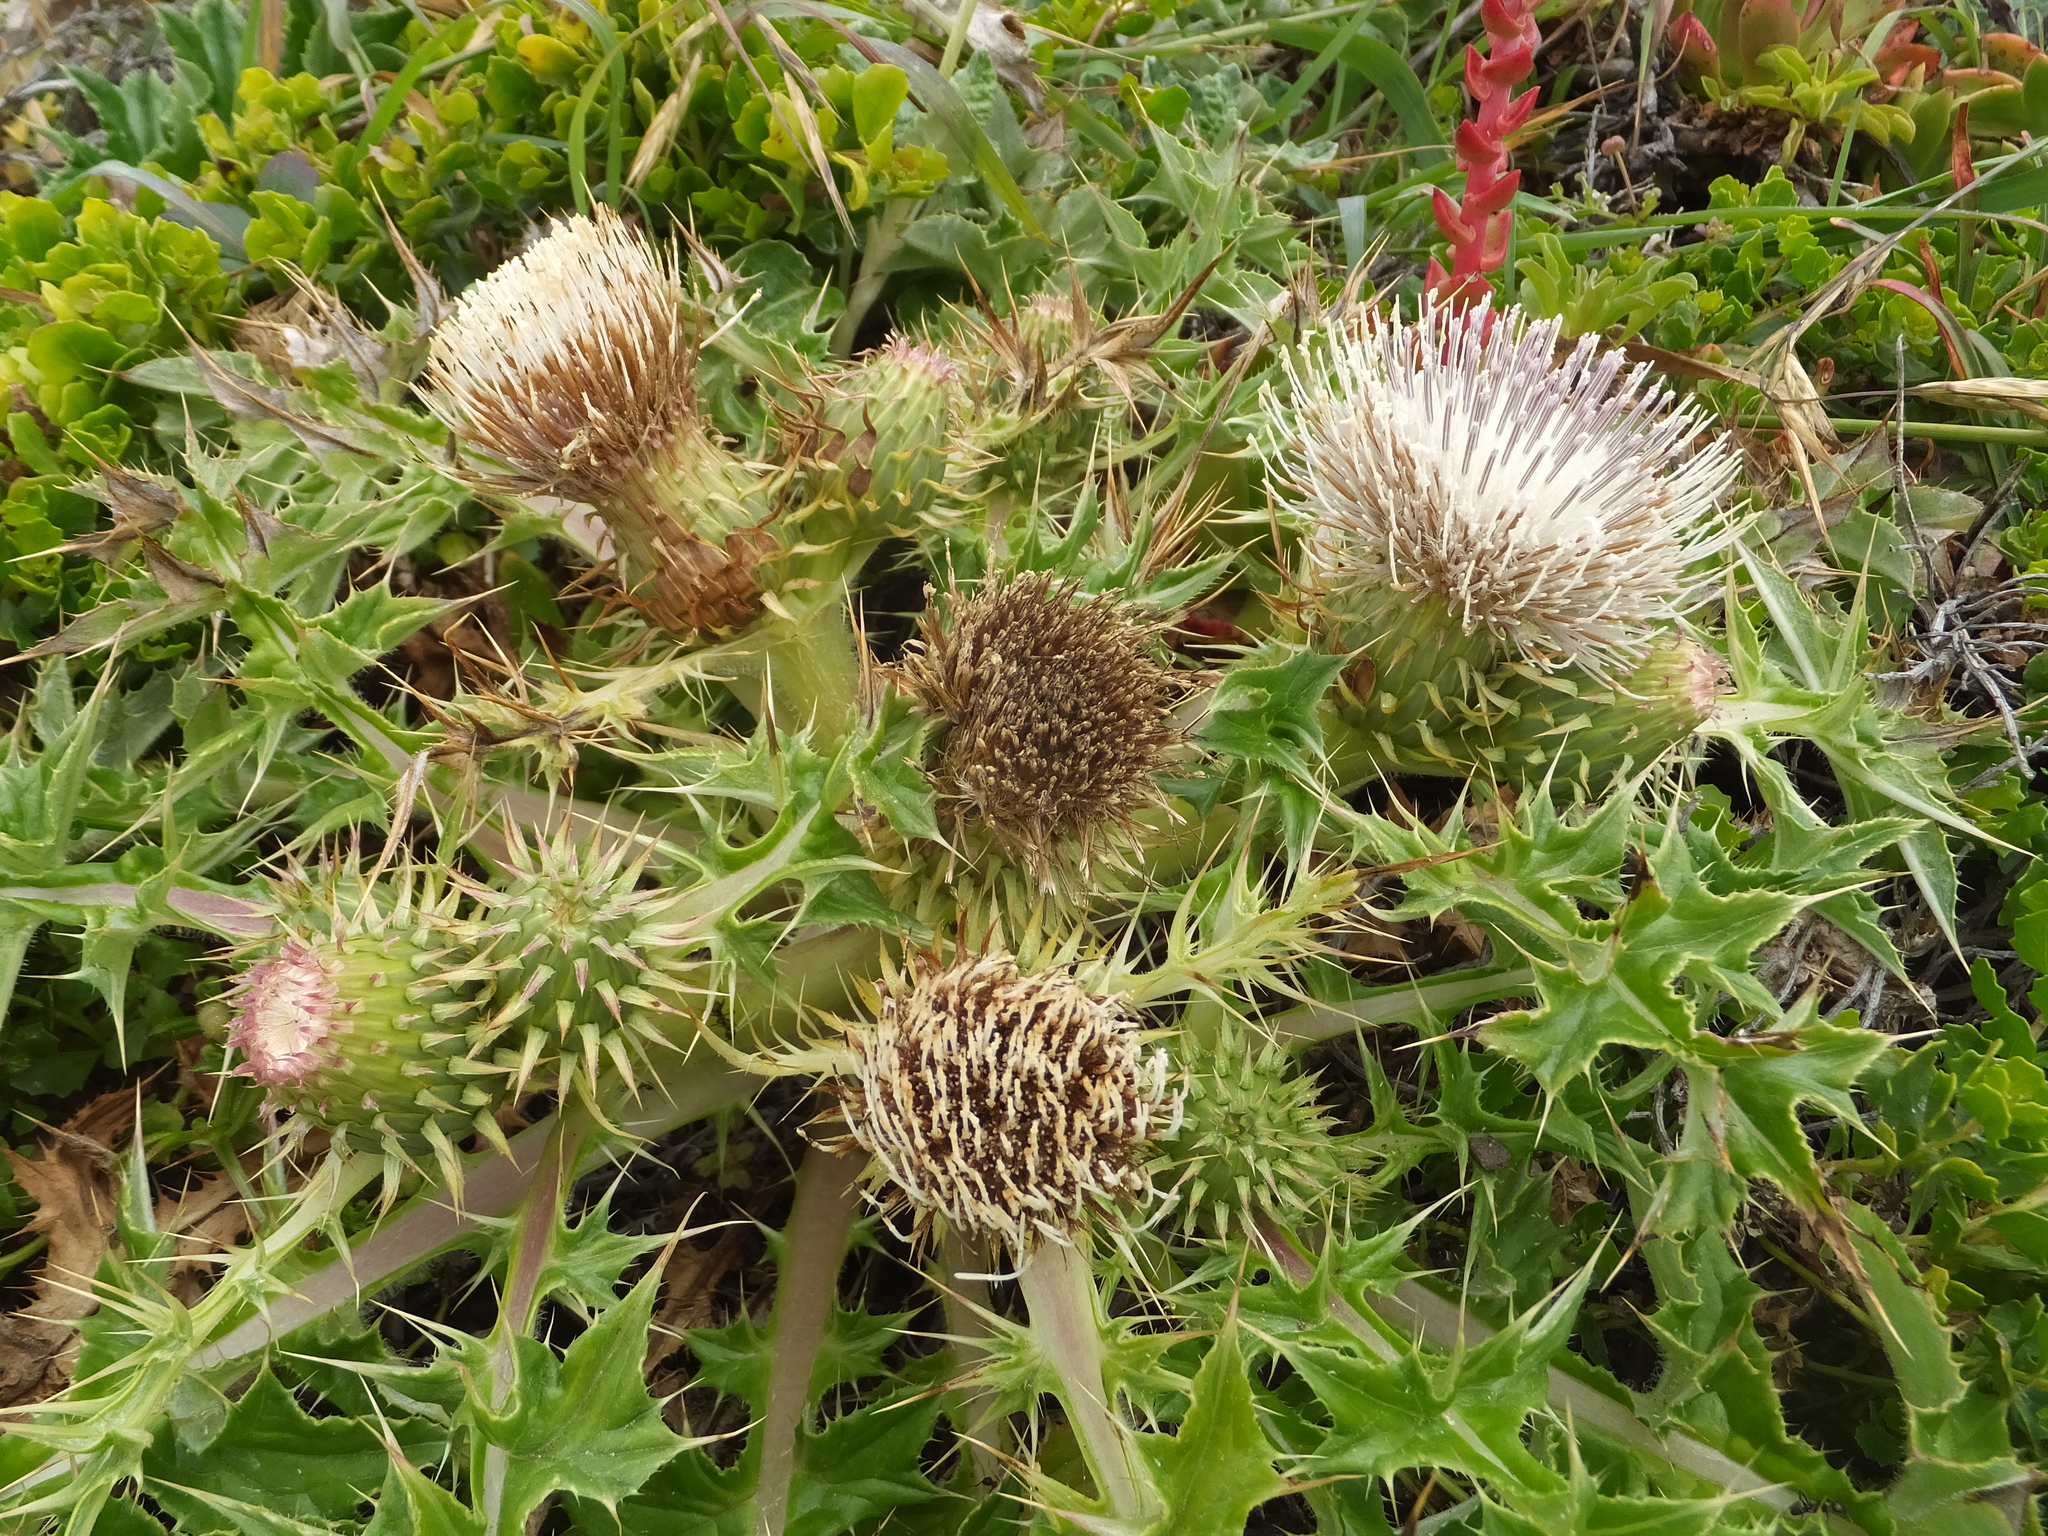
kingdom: Plantae
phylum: Tracheophyta
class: Magnoliopsida
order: Asterales
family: Asteraceae
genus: Cirsium
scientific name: Cirsium quercetorum
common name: Alameda county thistle
